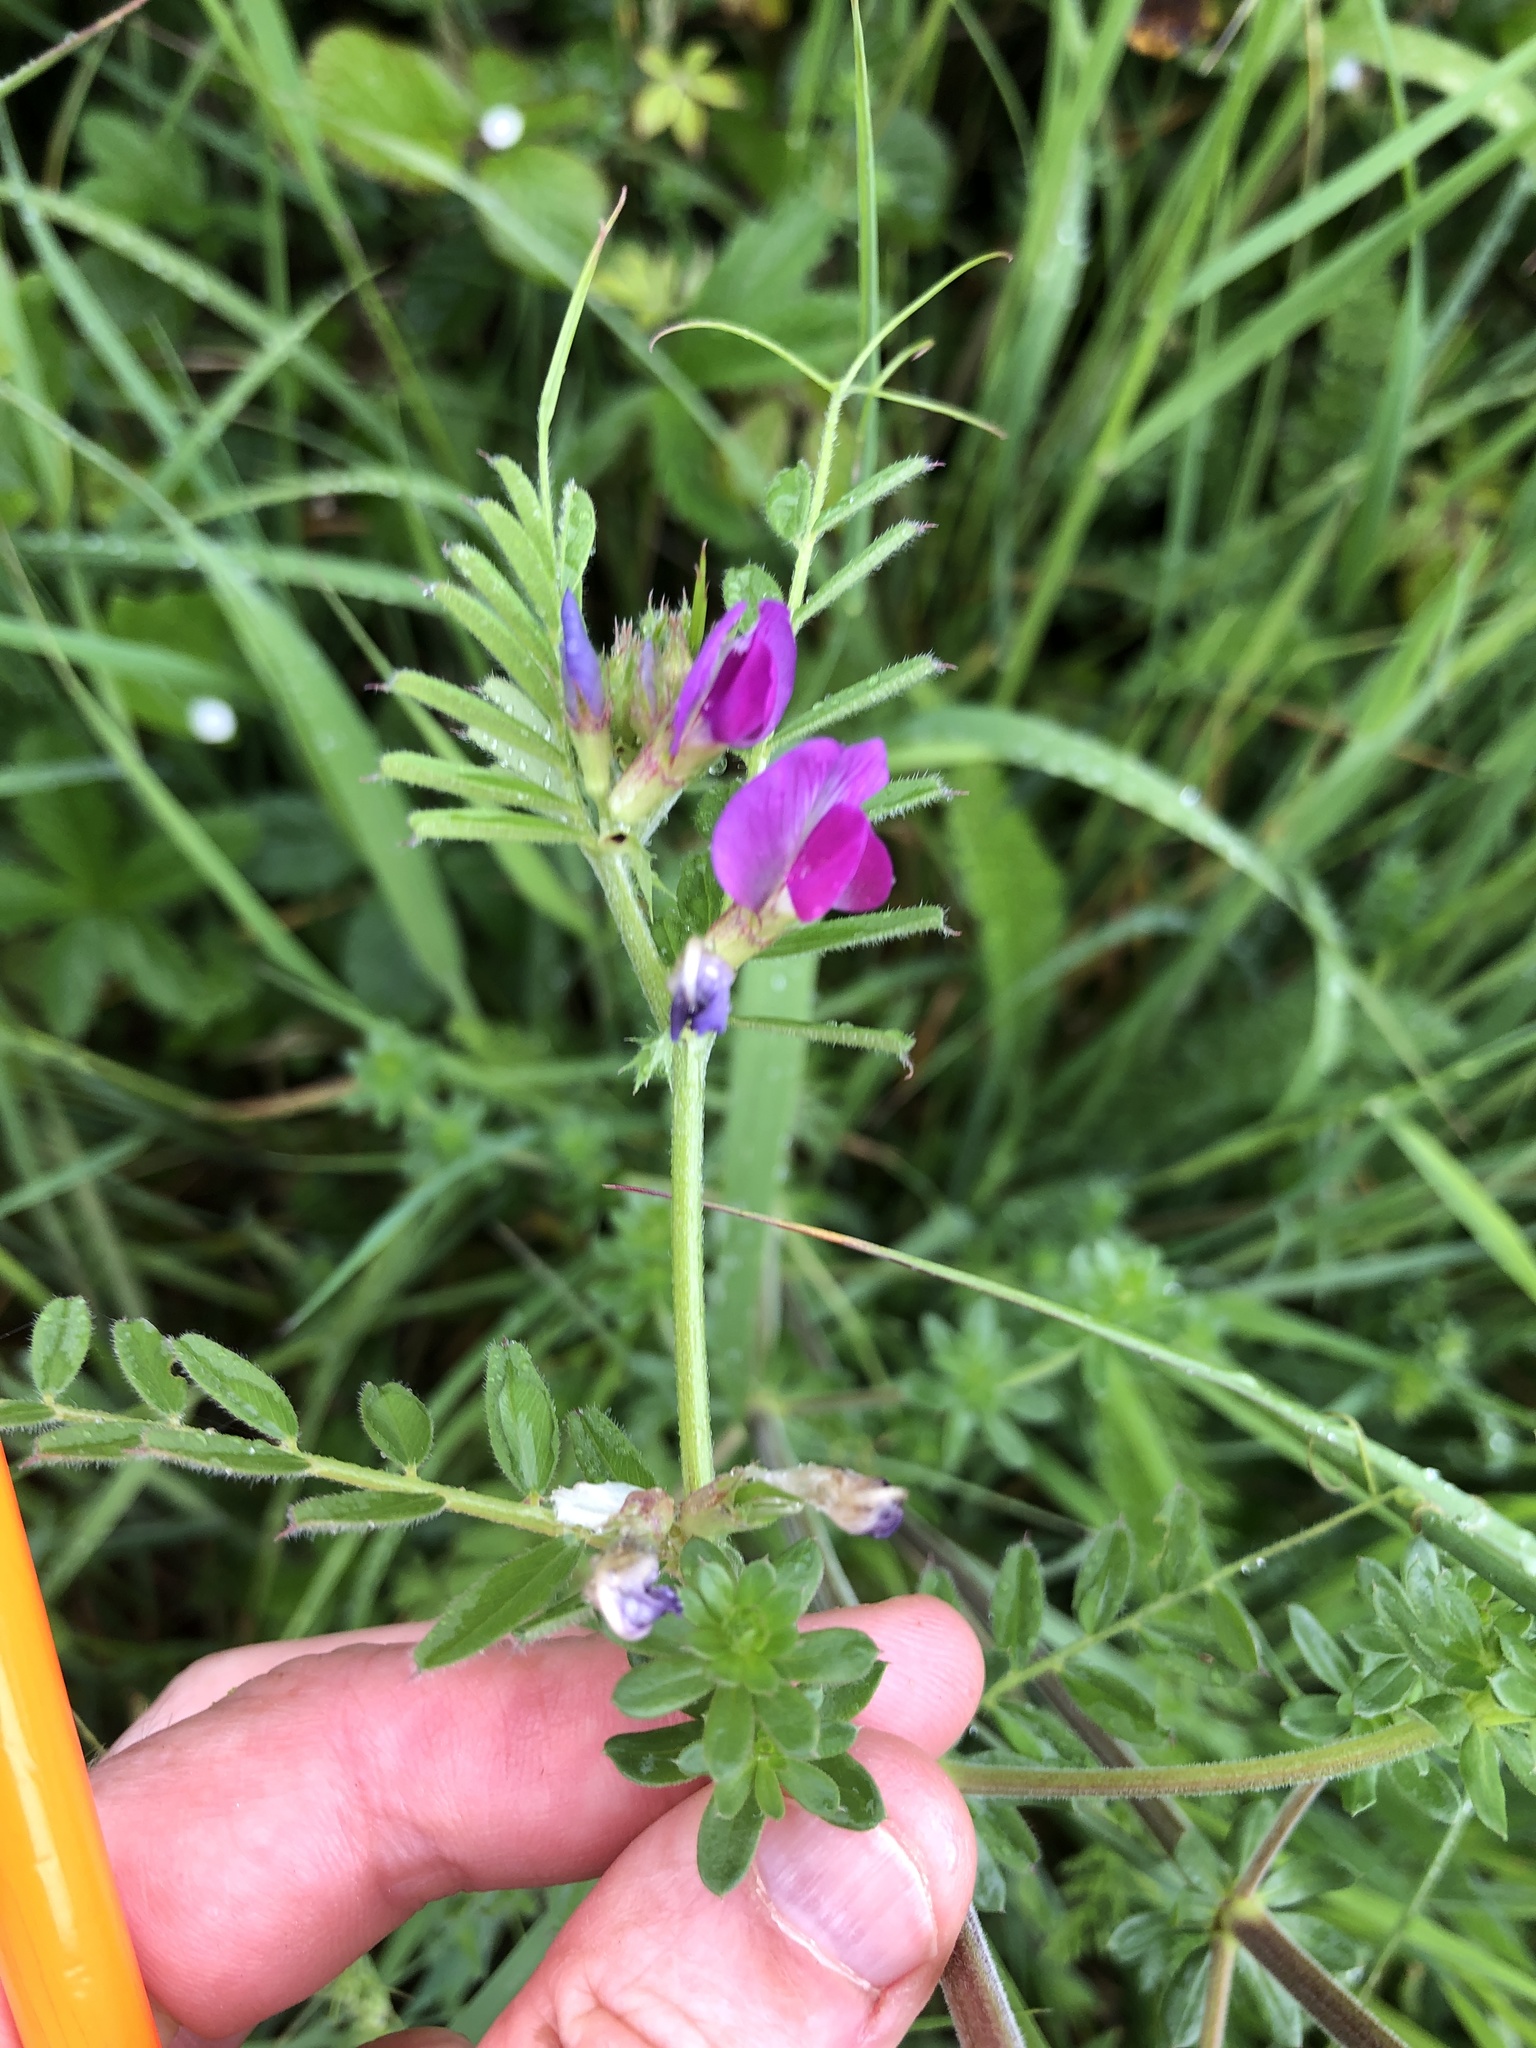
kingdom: Plantae
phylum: Tracheophyta
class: Magnoliopsida
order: Fabales
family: Fabaceae
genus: Vicia
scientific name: Vicia sativa
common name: Garden vetch
